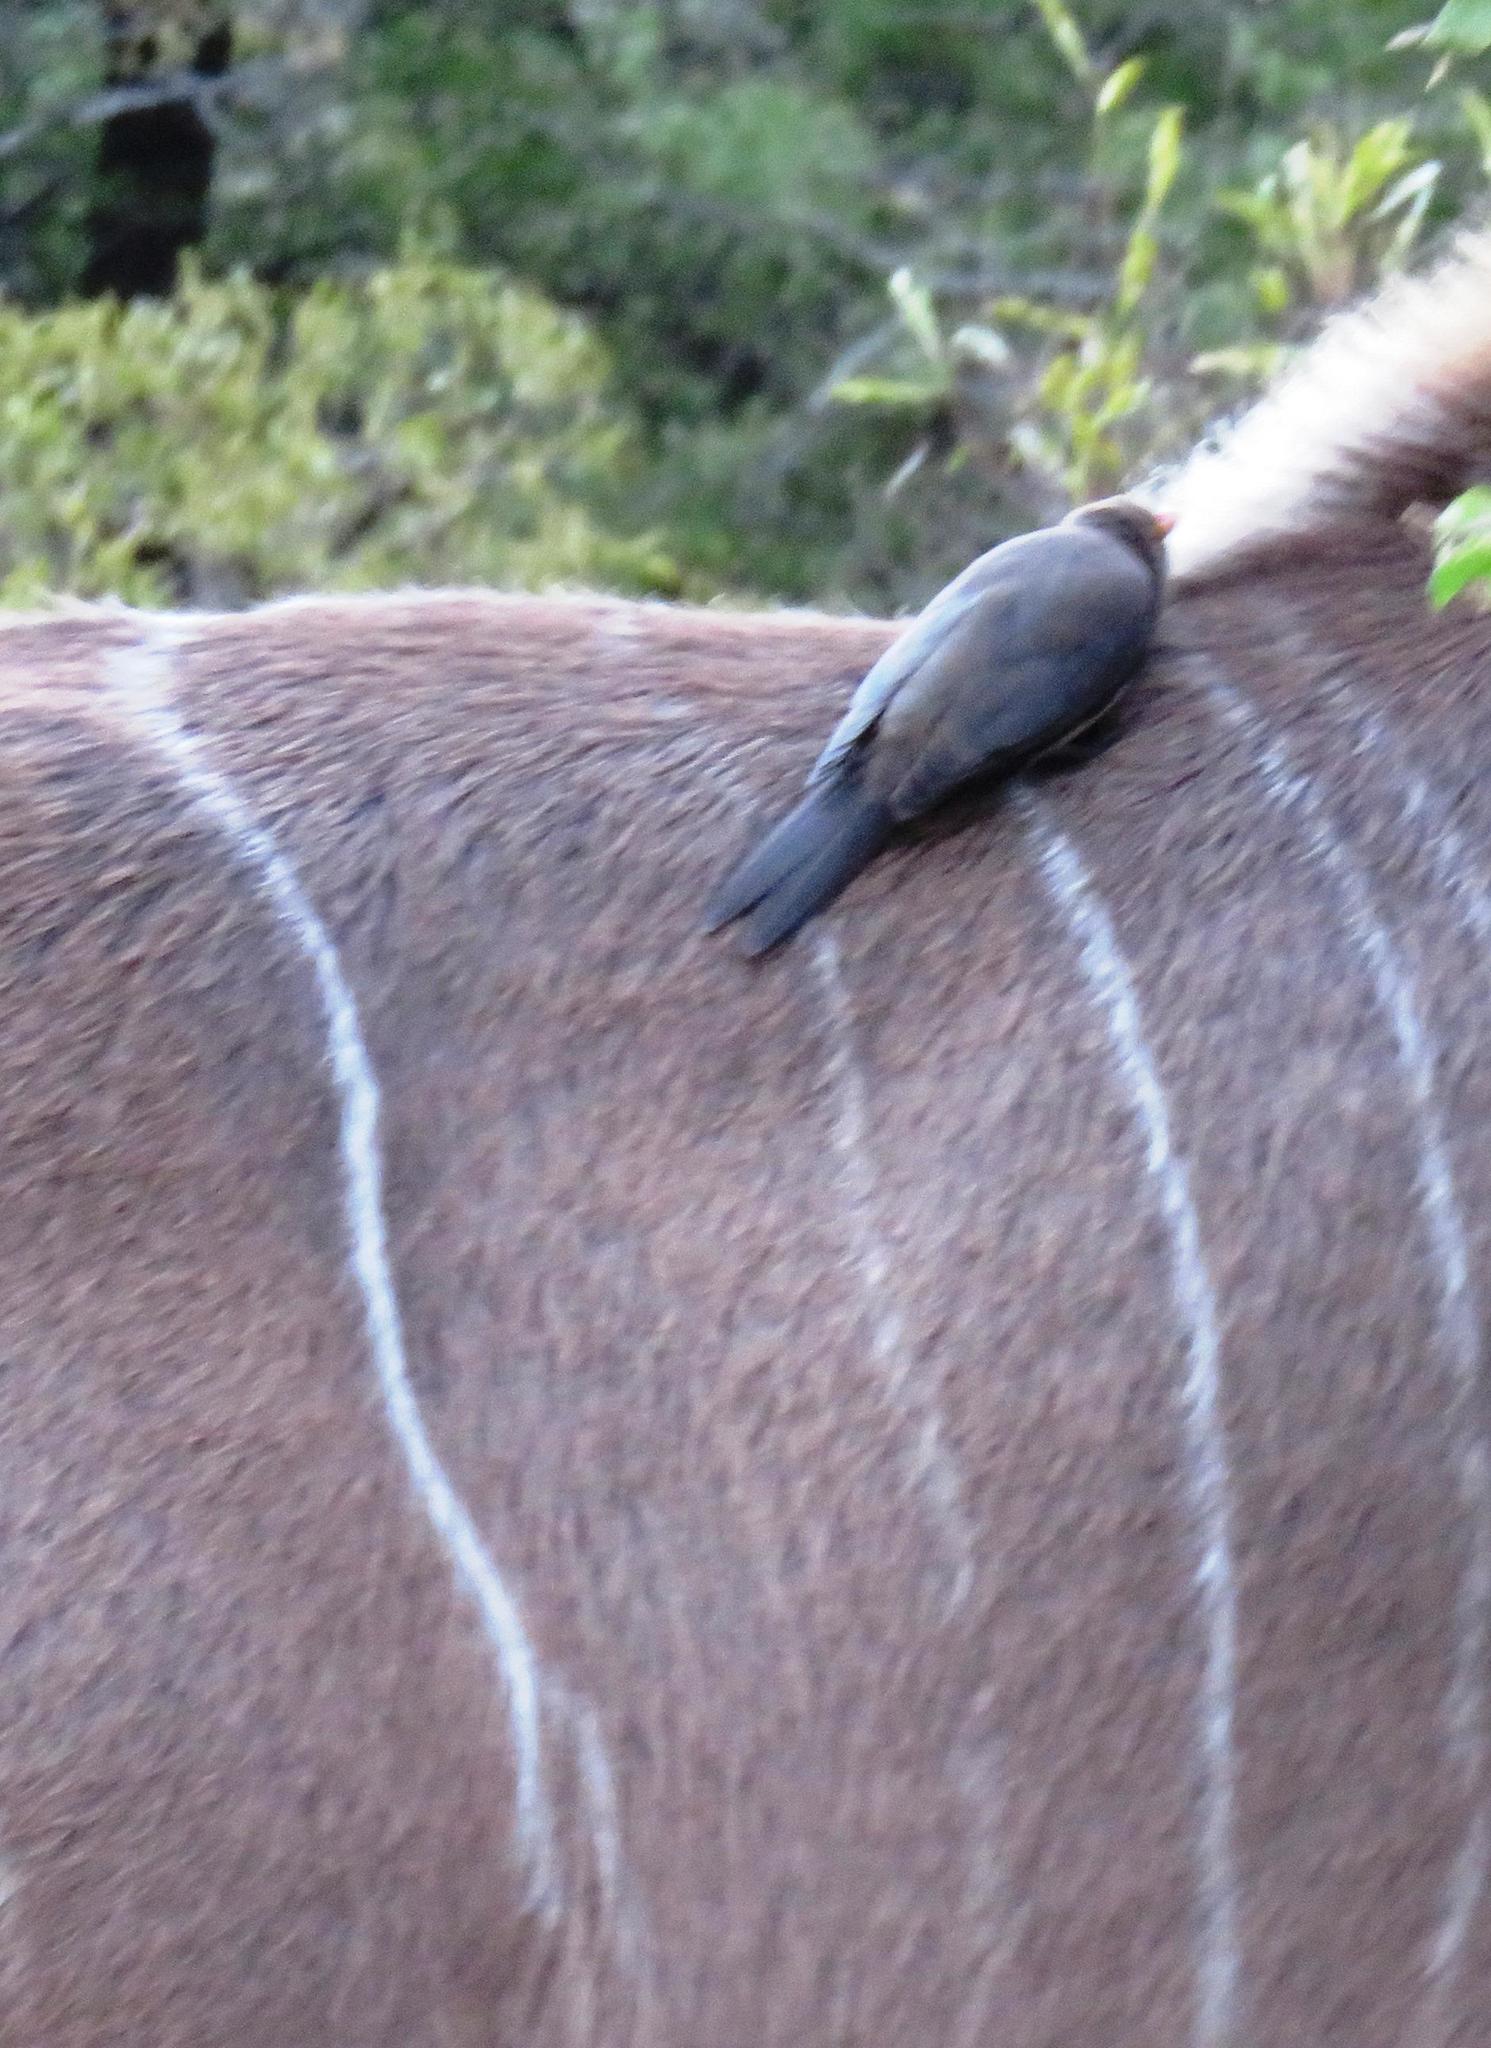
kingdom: Animalia
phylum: Chordata
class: Aves
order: Passeriformes
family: Buphagidae
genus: Buphagus
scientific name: Buphagus erythrorhynchus
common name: Red-billed oxpecker
